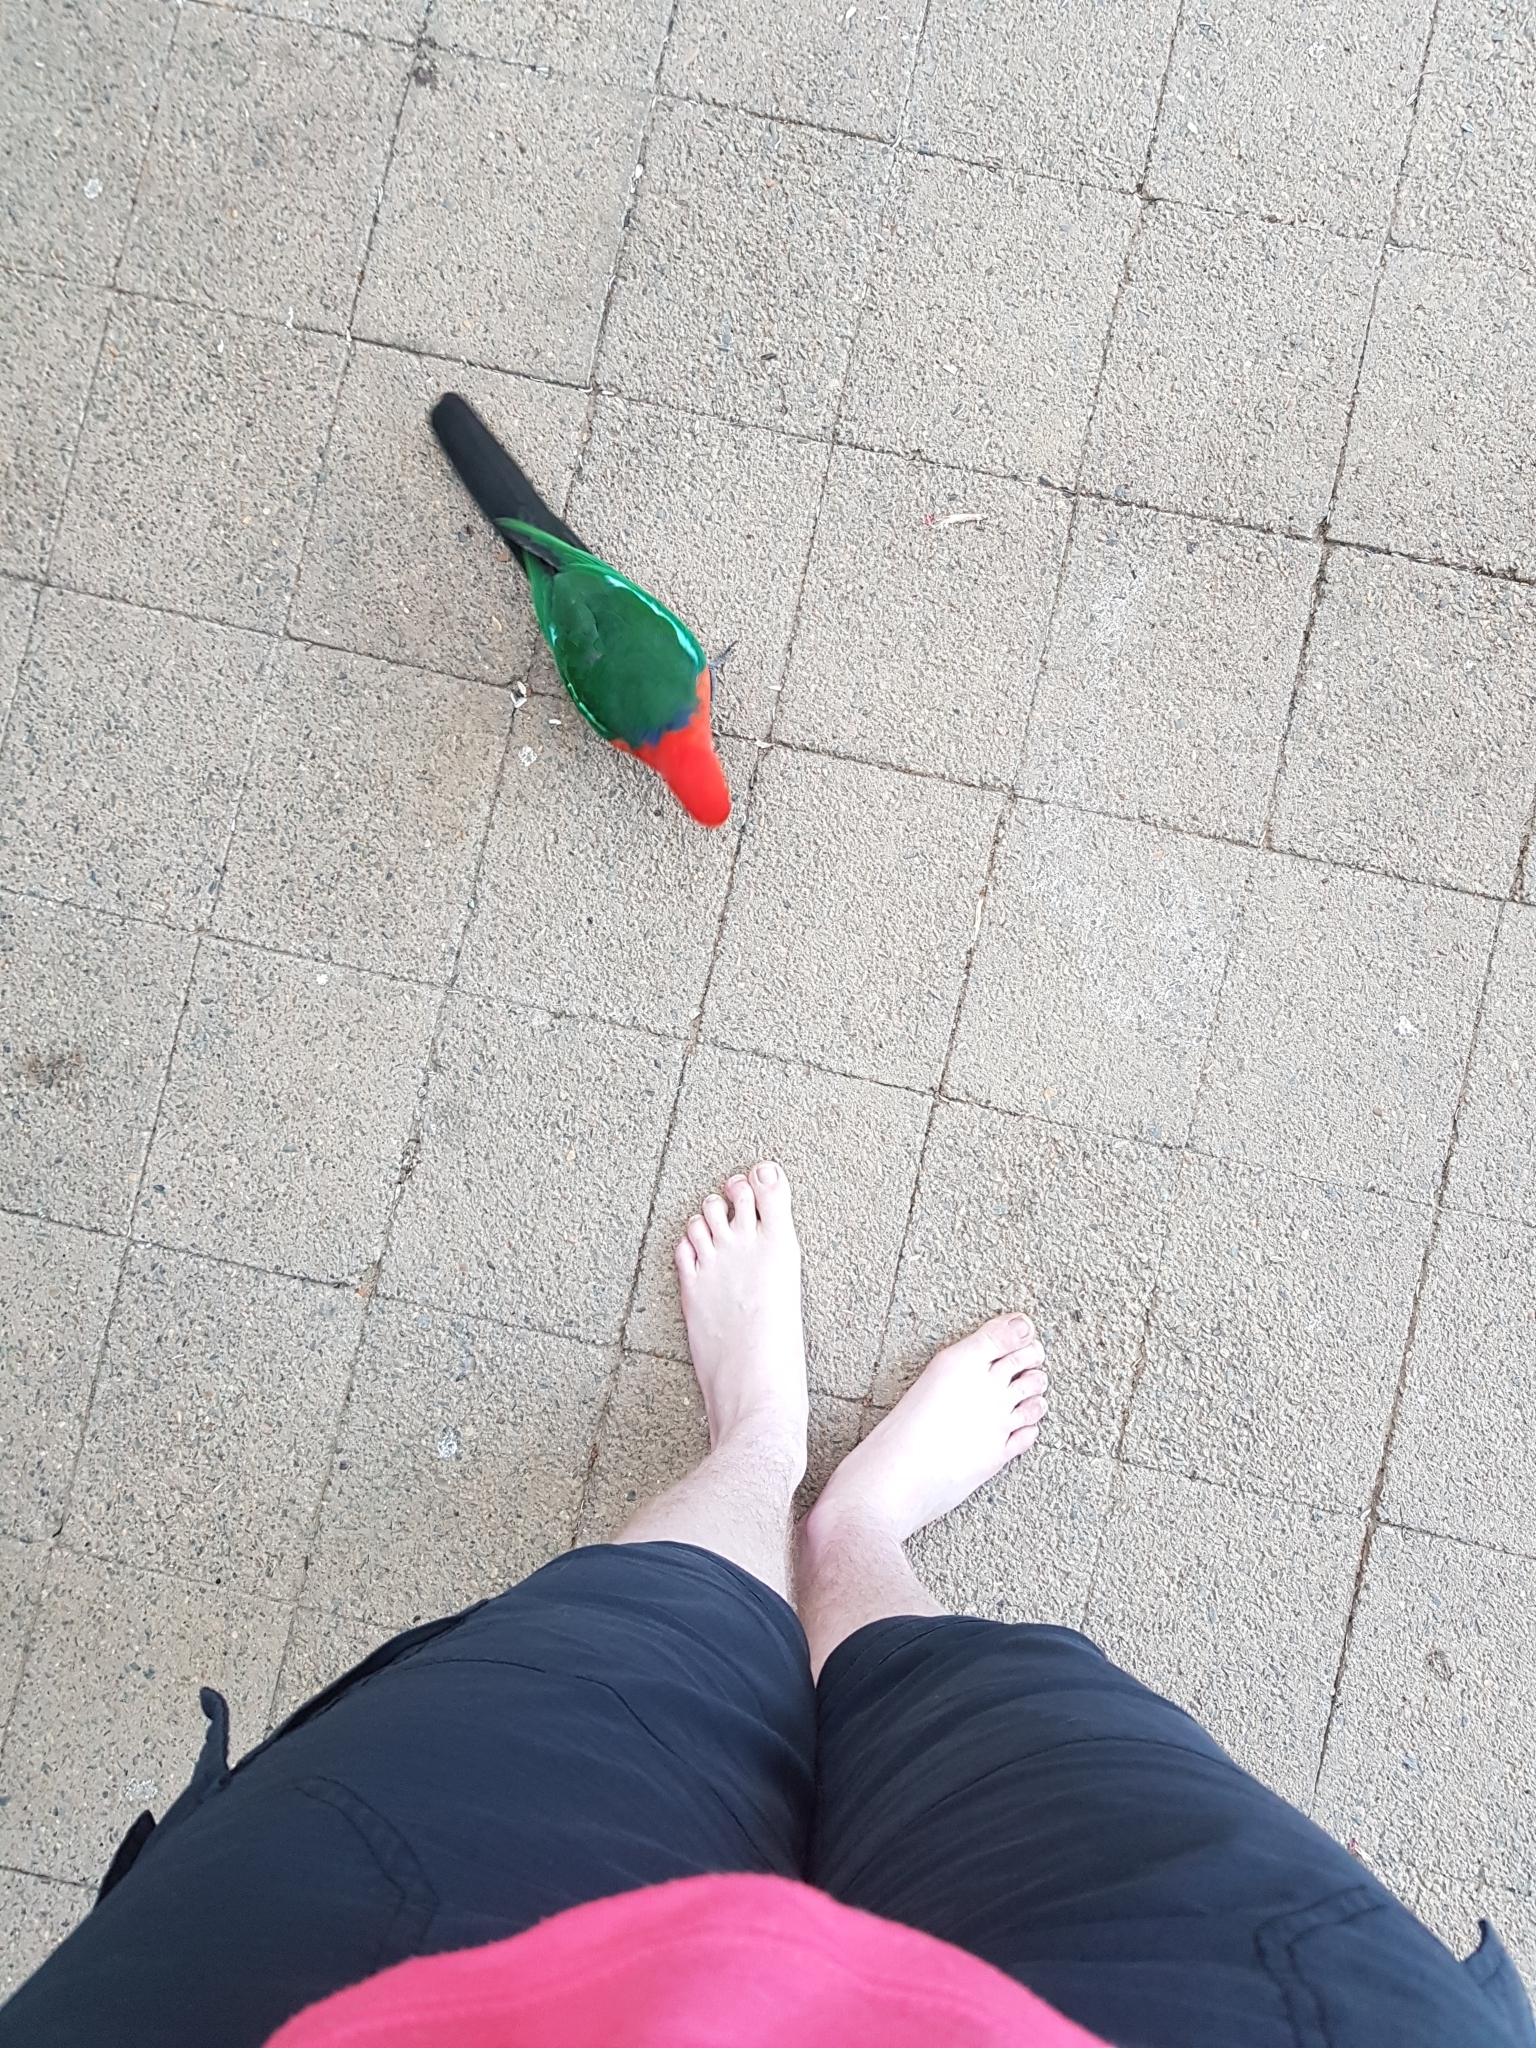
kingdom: Animalia
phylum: Chordata
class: Aves
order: Psittaciformes
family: Psittacidae
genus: Alisterus
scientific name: Alisterus scapularis
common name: Australian king parrot
